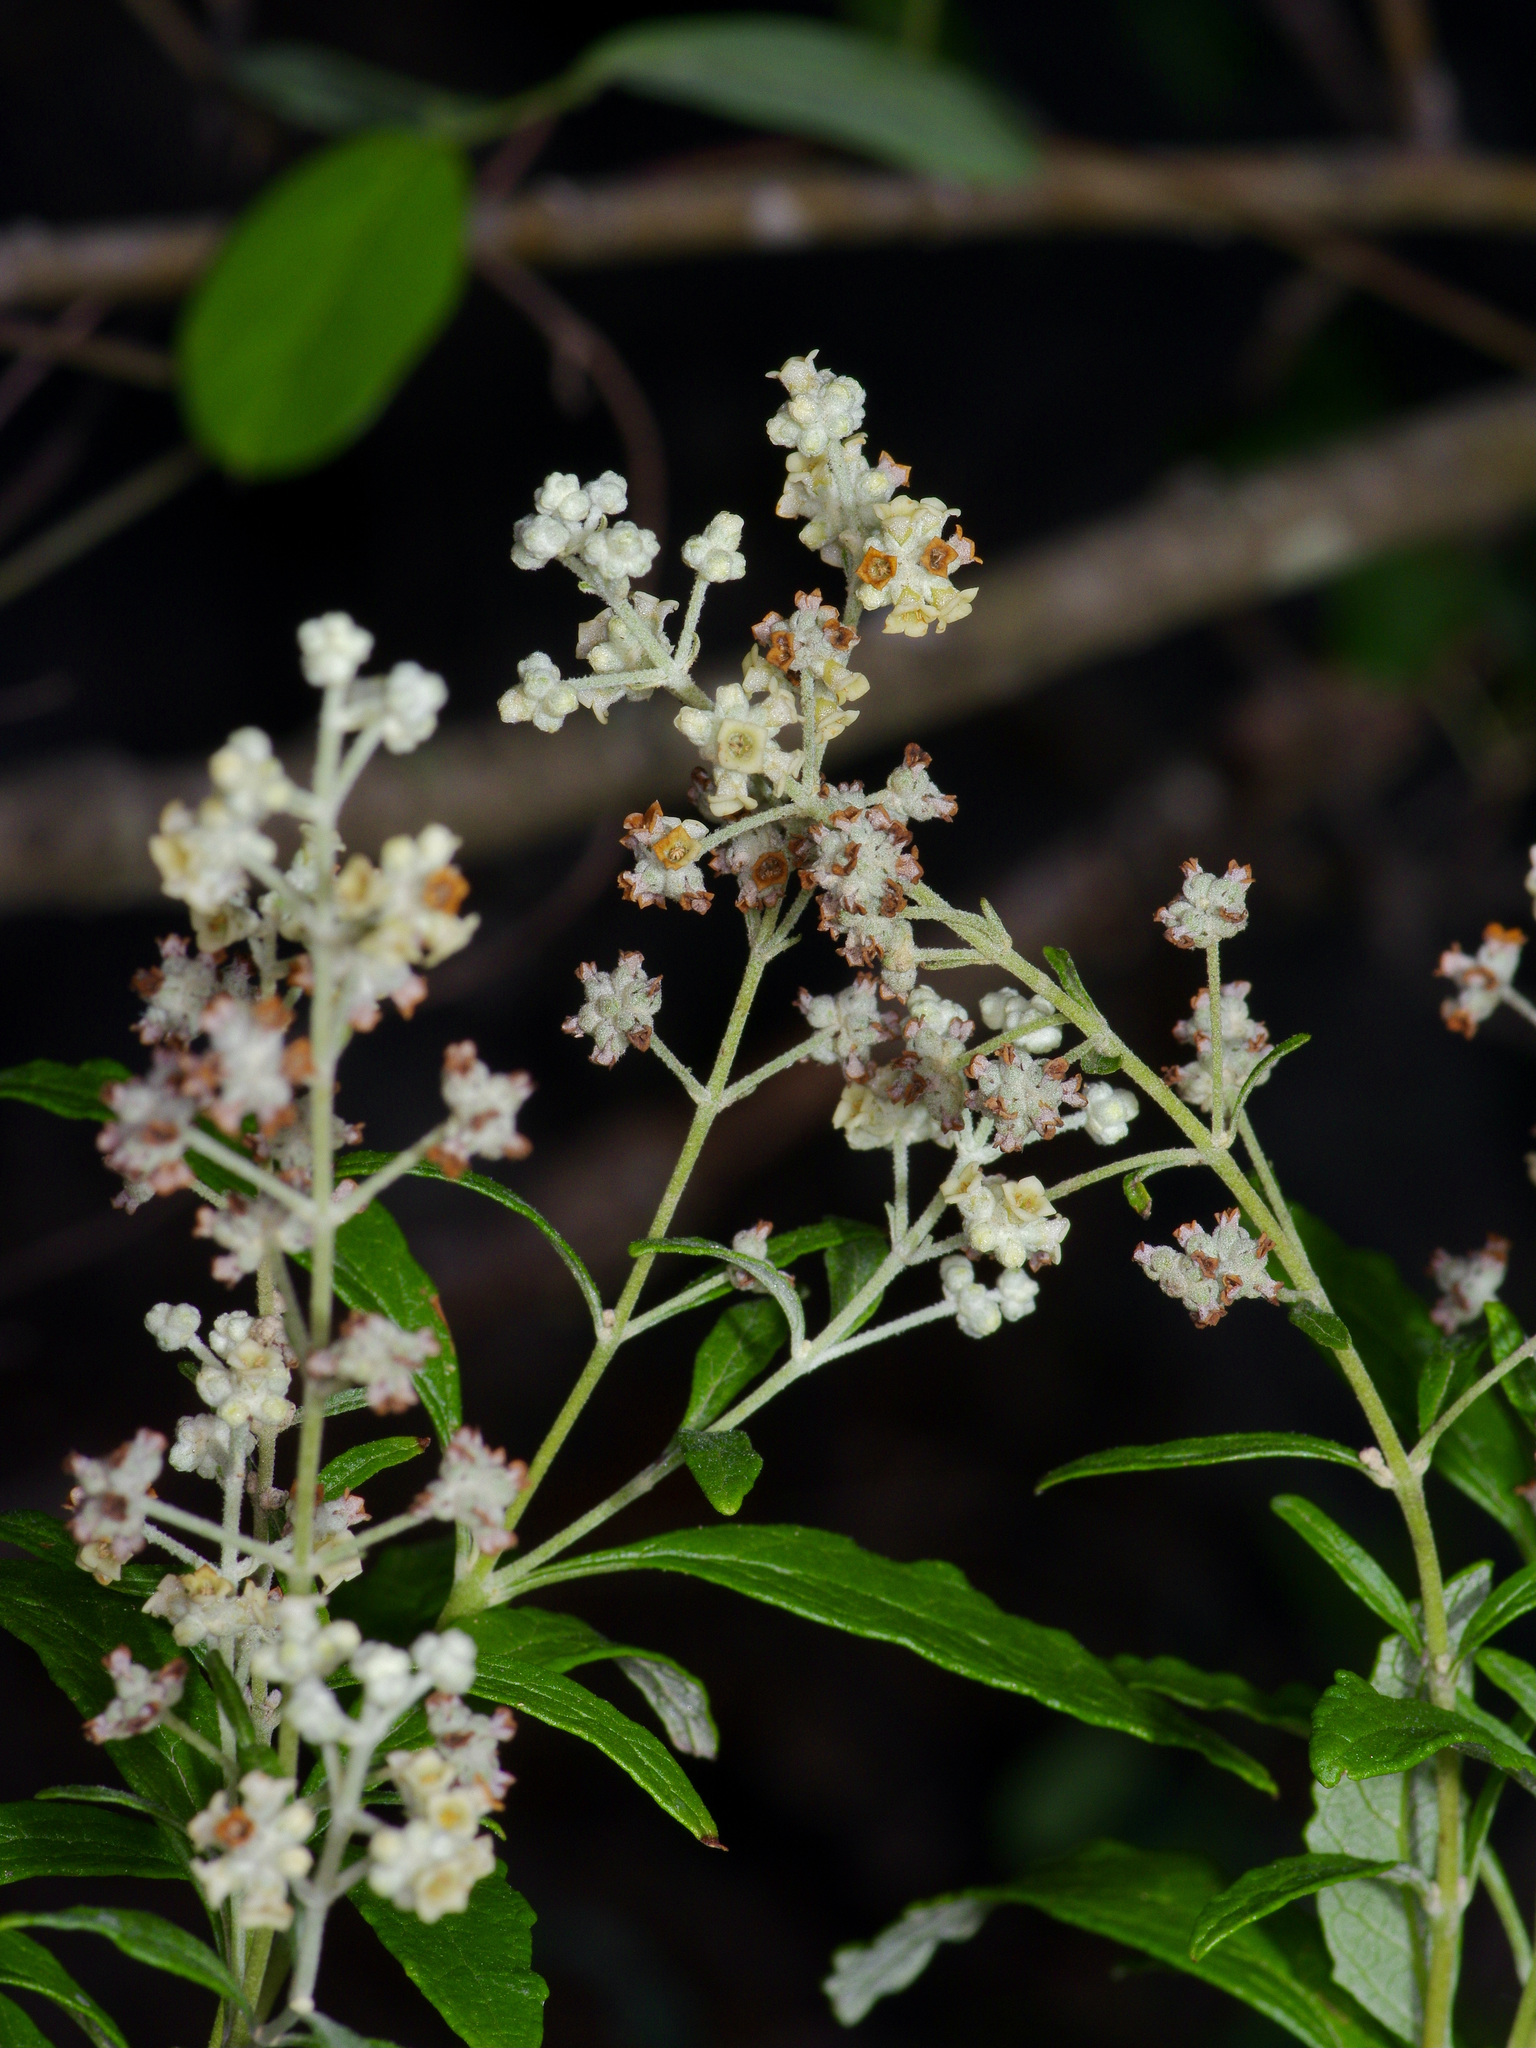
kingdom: Plantae
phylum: Tracheophyta
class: Magnoliopsida
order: Lamiales
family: Scrophulariaceae
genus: Buddleja
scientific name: Buddleja racemosa
